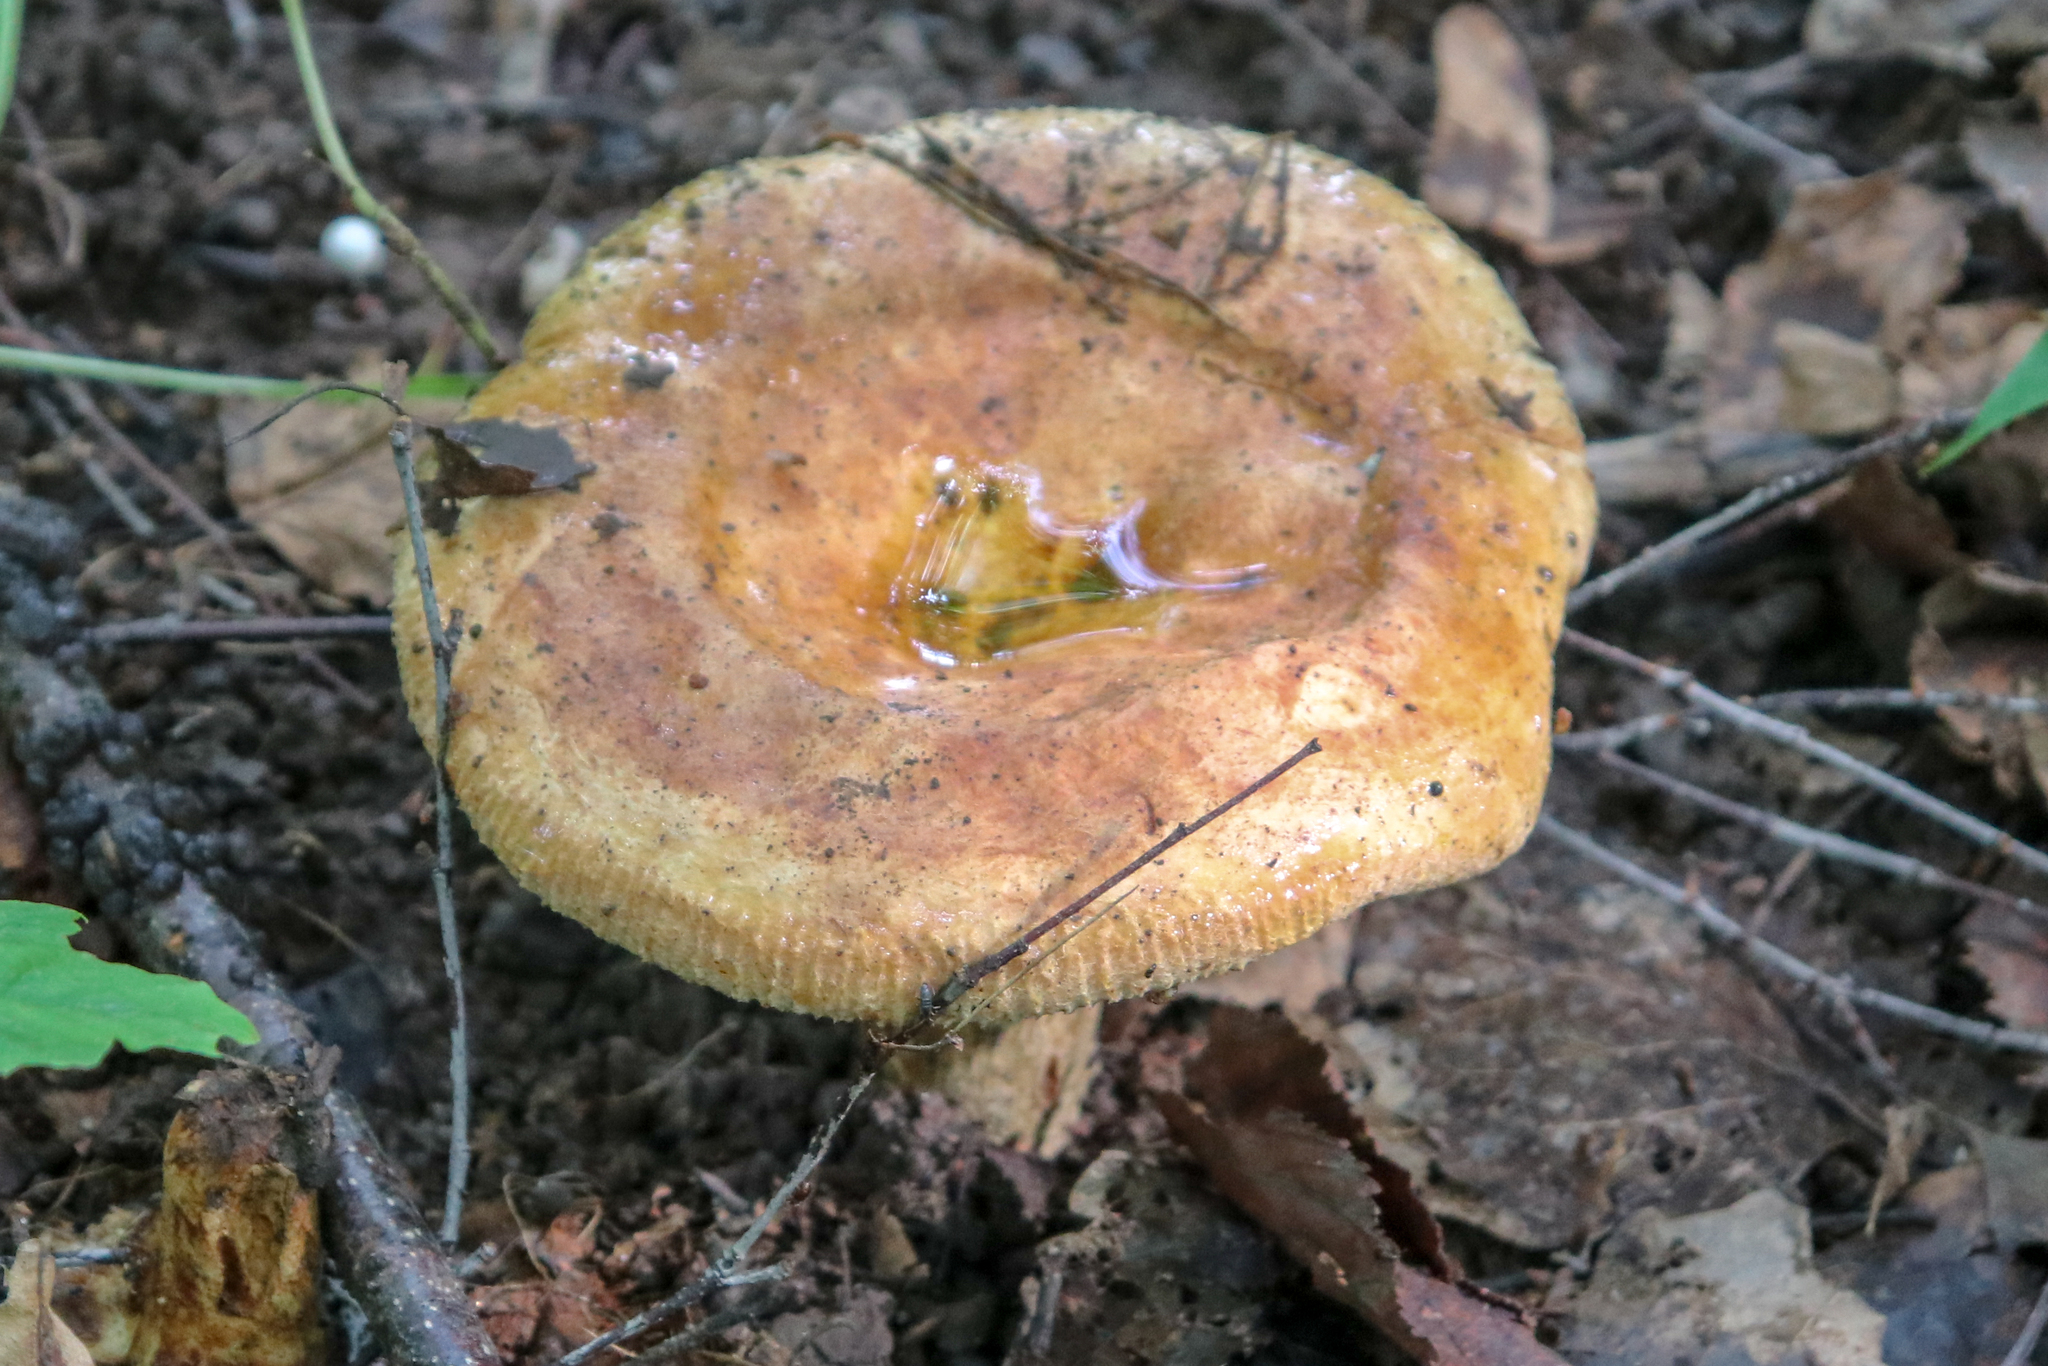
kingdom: Fungi
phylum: Basidiomycota
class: Agaricomycetes
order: Boletales
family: Paxillaceae
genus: Paxillus
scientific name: Paxillus involutus
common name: Brown roll rim
